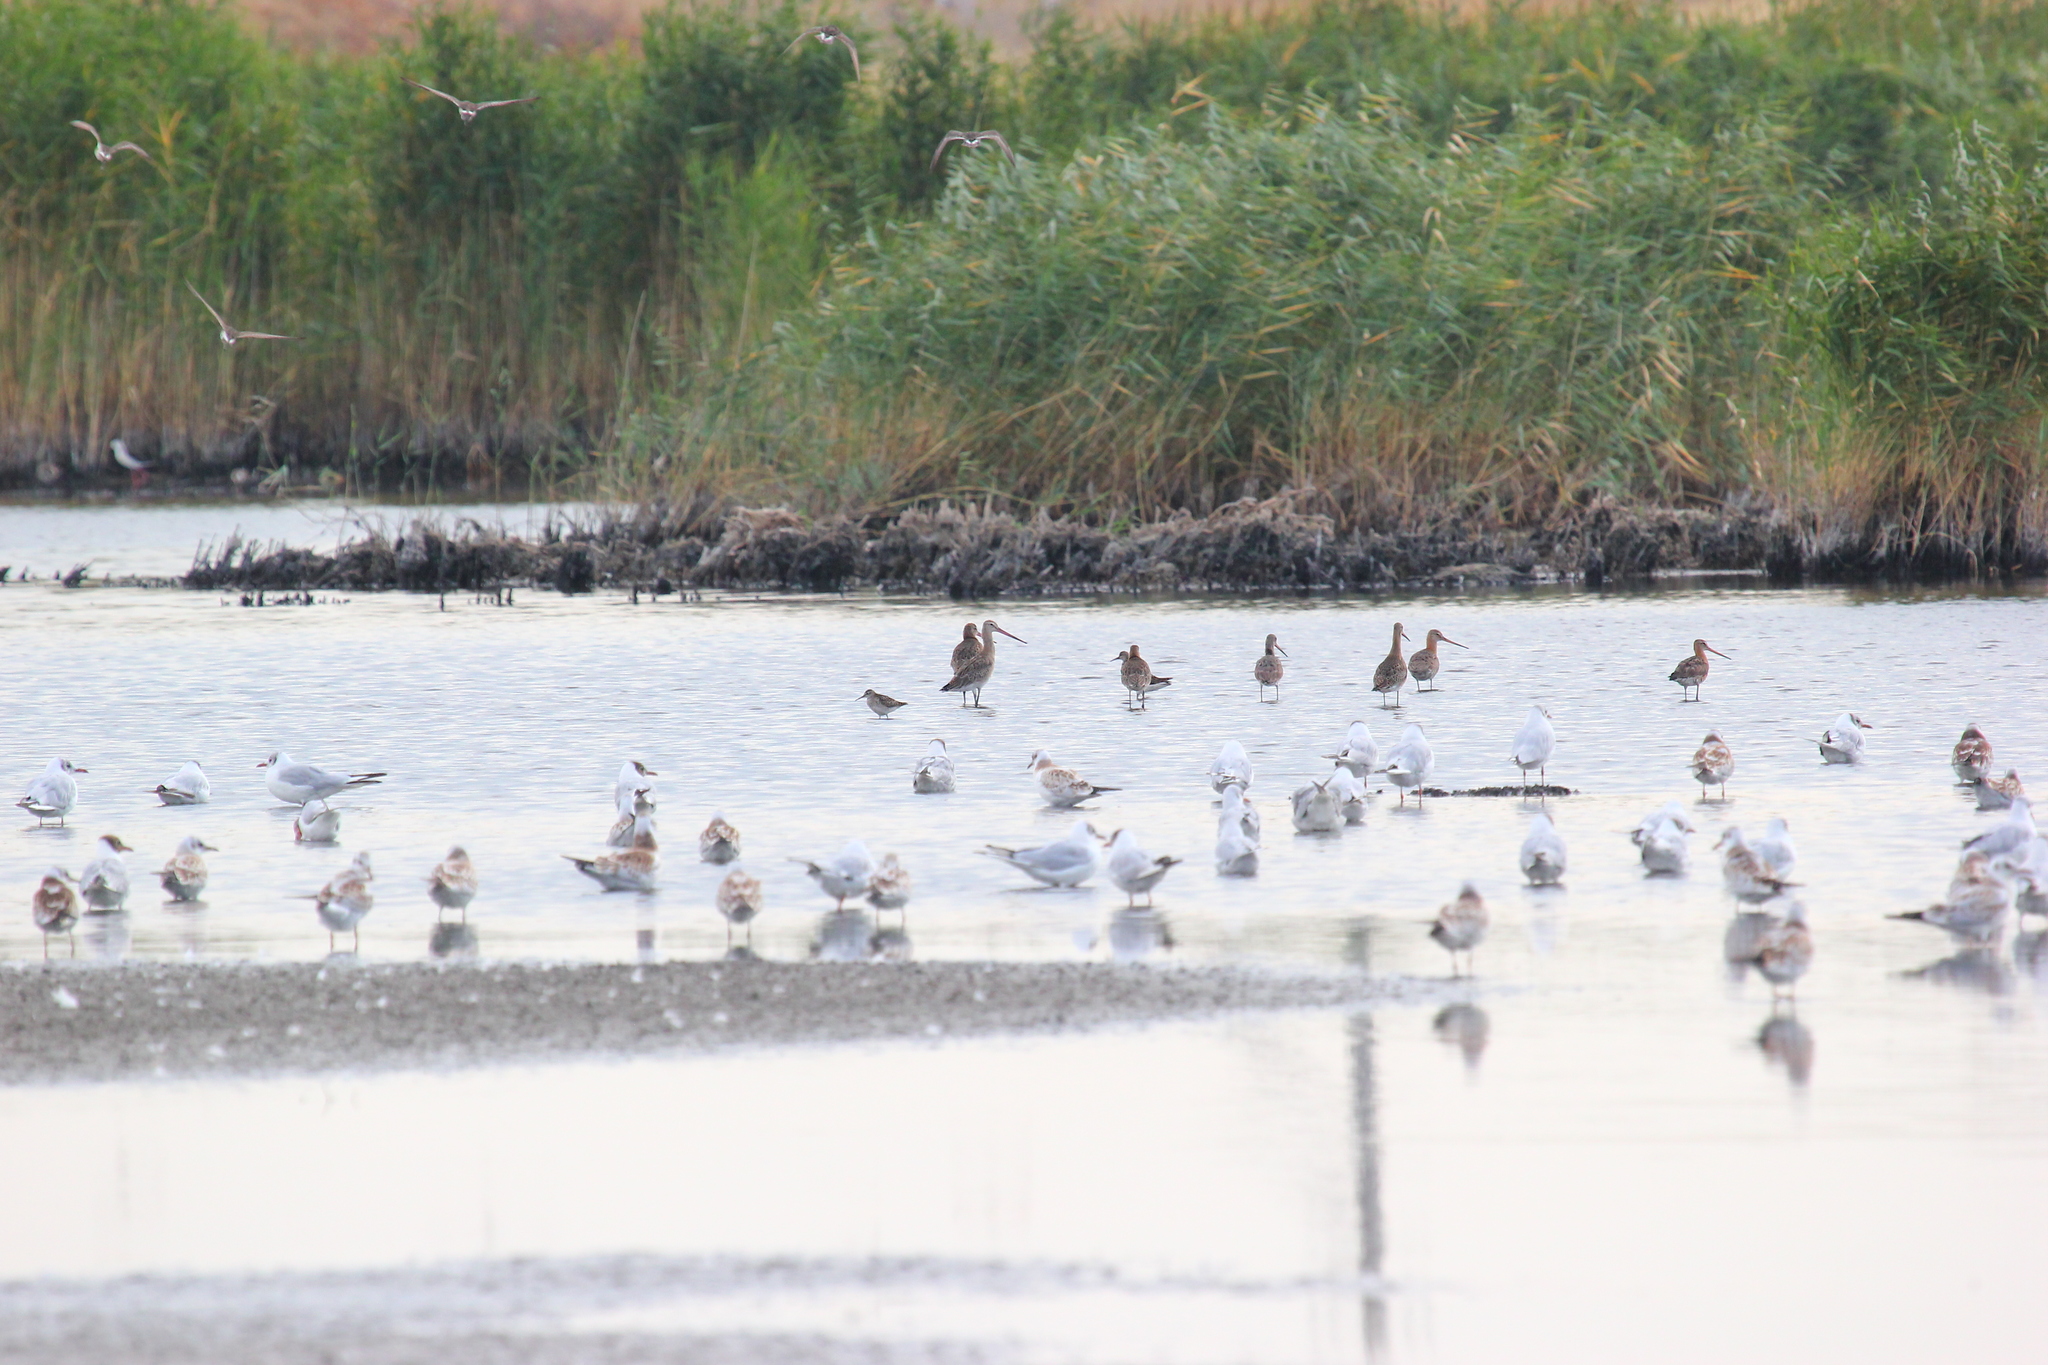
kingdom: Animalia
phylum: Chordata
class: Aves
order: Charadriiformes
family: Laridae
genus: Chroicocephalus
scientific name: Chroicocephalus ridibundus
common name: Black-headed gull
